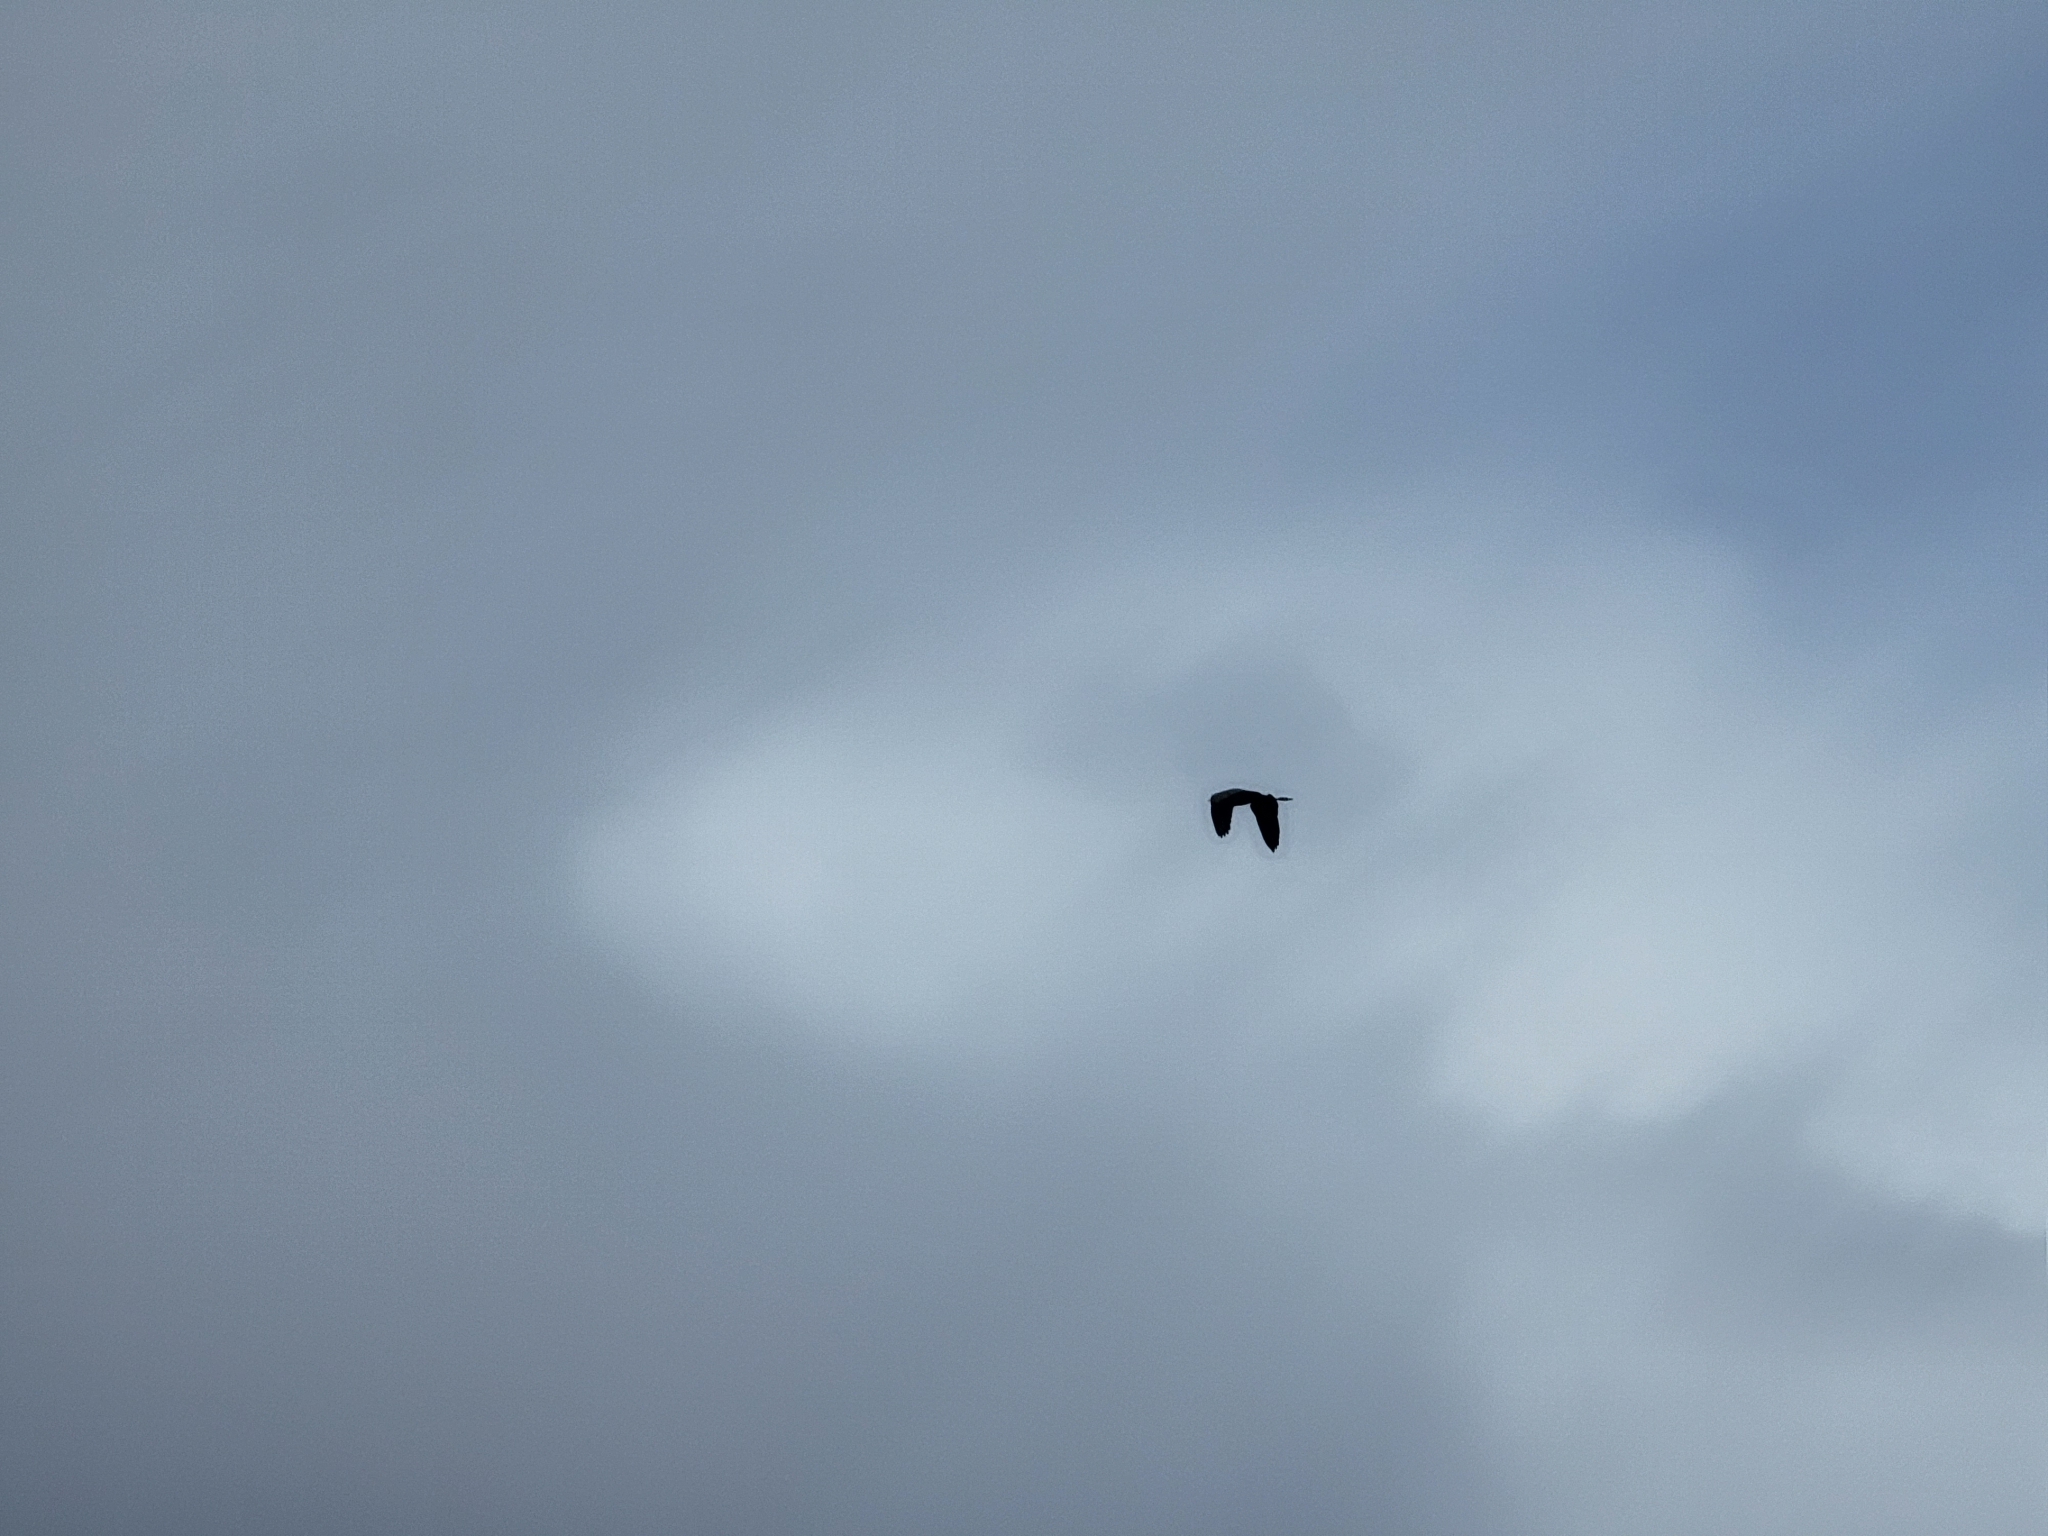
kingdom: Animalia
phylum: Chordata
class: Aves
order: Pelecaniformes
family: Ardeidae
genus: Ardea
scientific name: Ardea herodias
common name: Great blue heron
